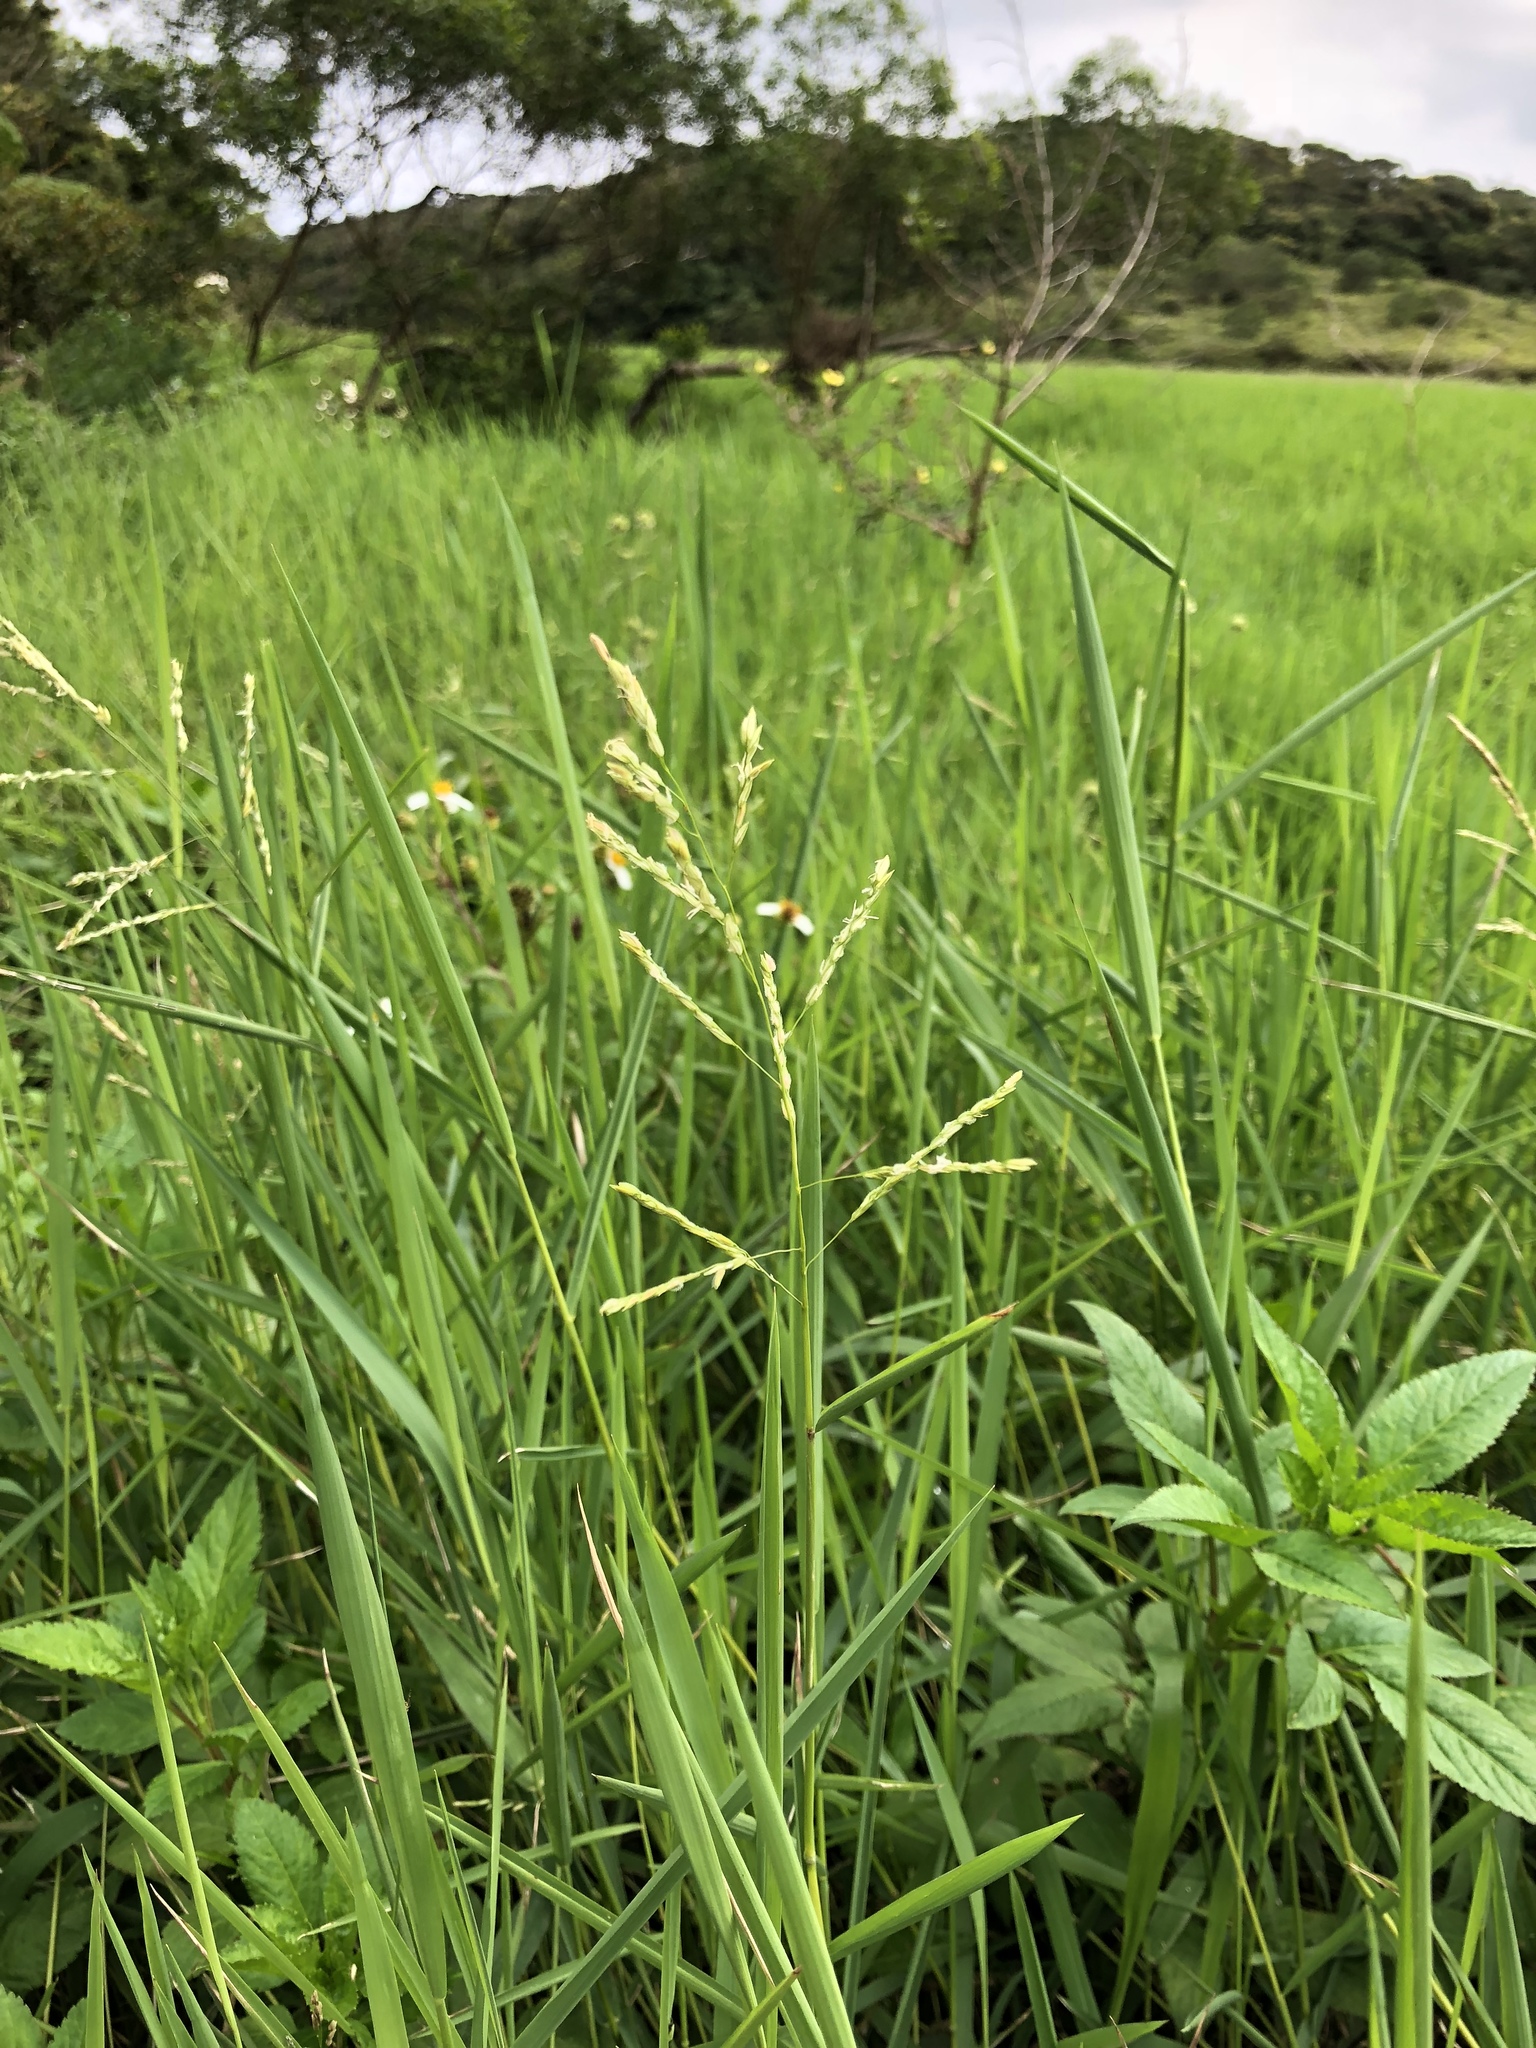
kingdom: Plantae
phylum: Tracheophyta
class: Liliopsida
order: Poales
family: Poaceae
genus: Leersia
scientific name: Leersia hexandra
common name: Southern cut grass
